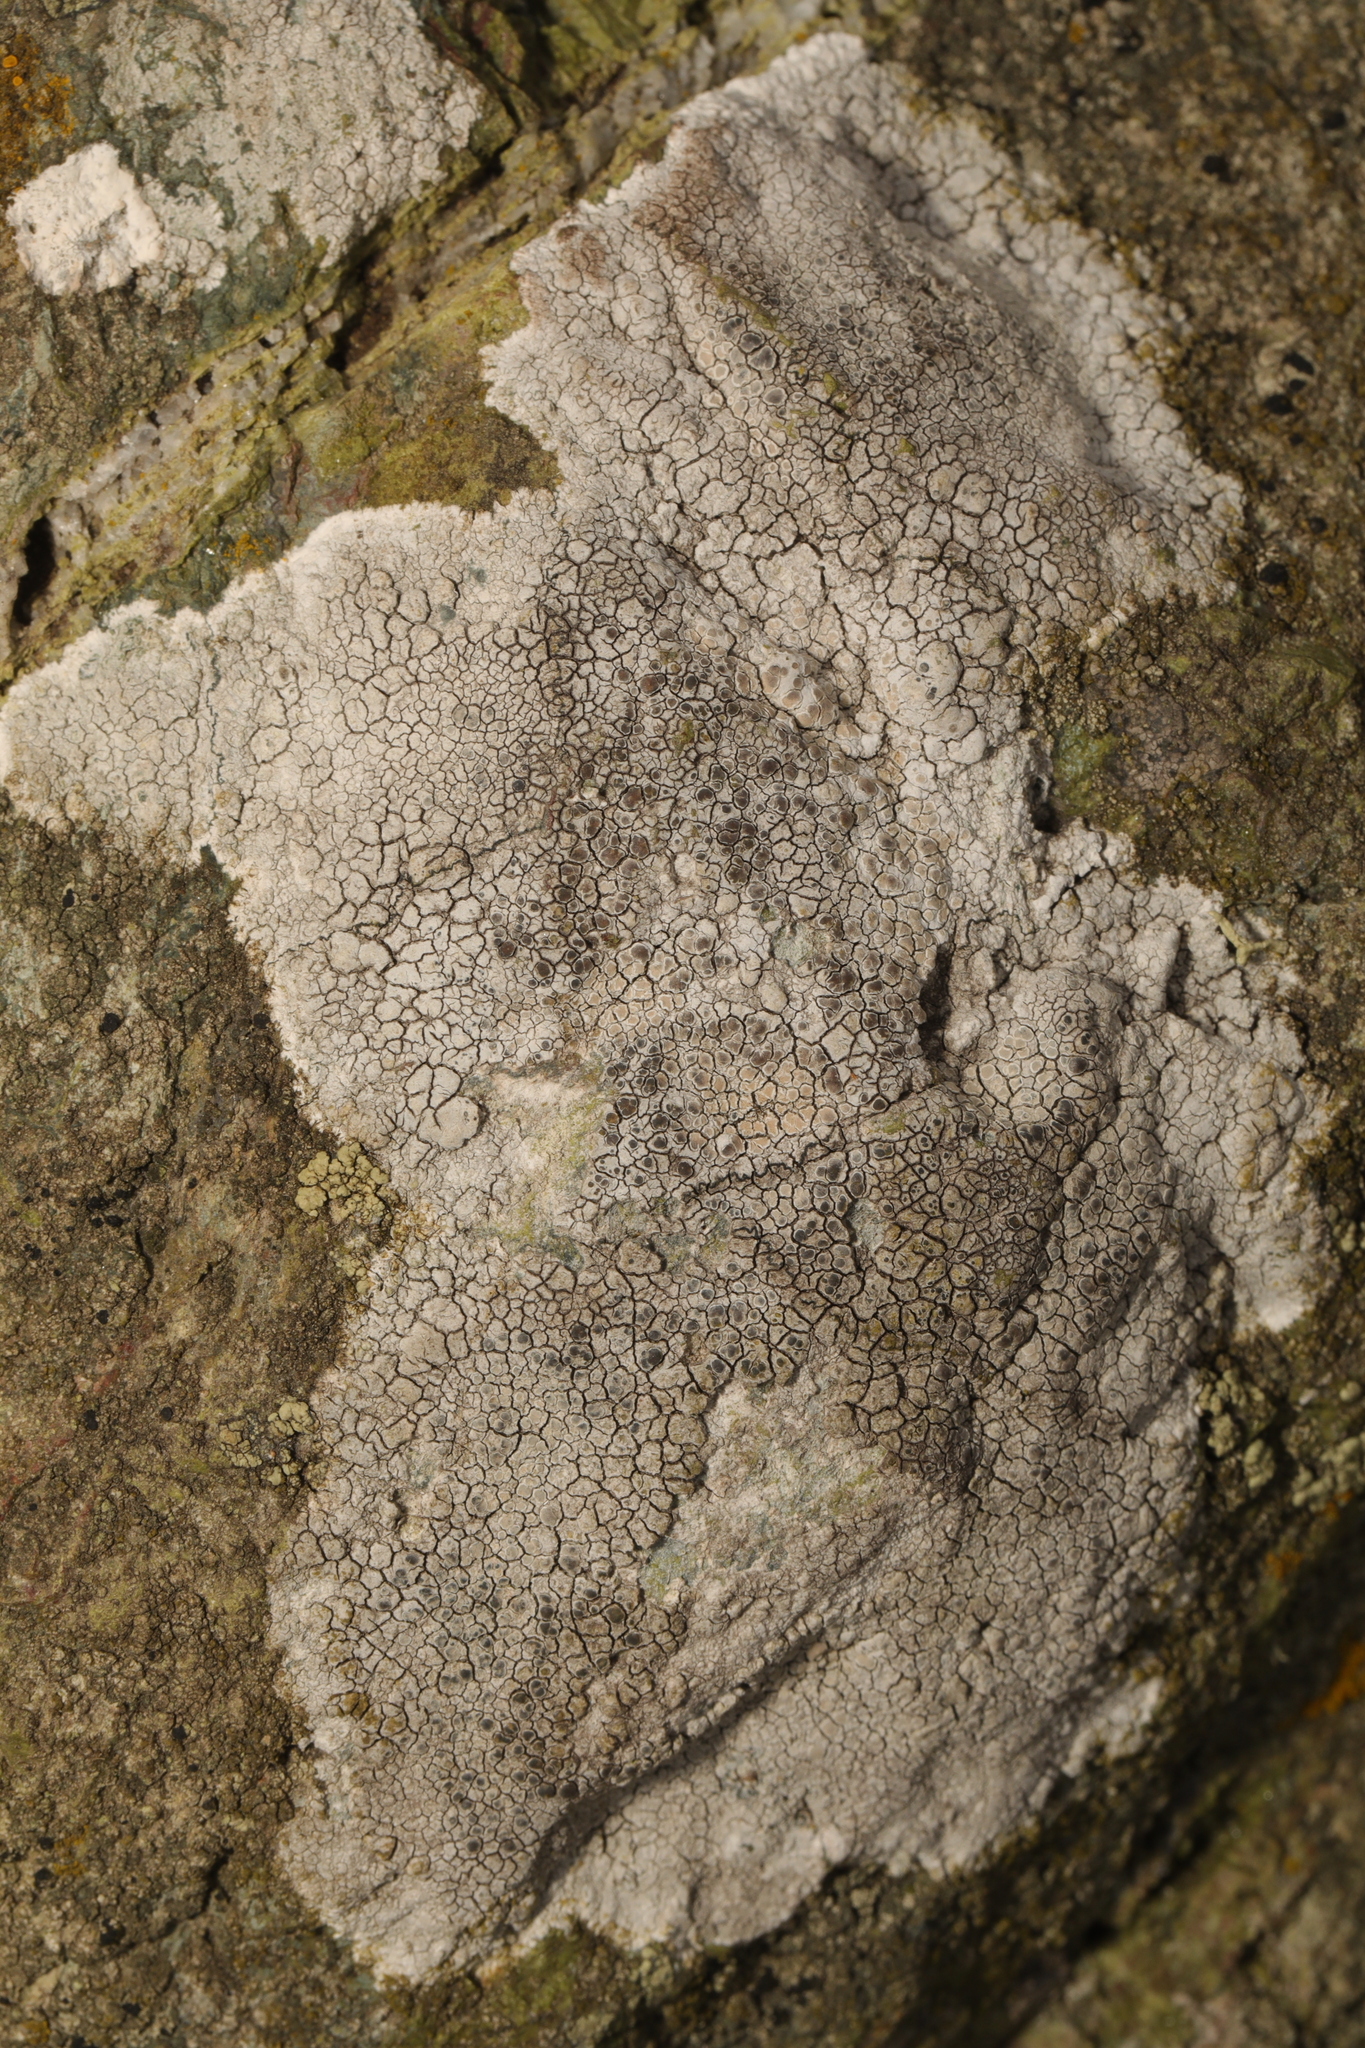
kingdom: Fungi
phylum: Ascomycota
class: Lecanoromycetes
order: Lecanorales
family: Lecanoraceae
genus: Glaucomaria
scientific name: Glaucomaria rupicola
